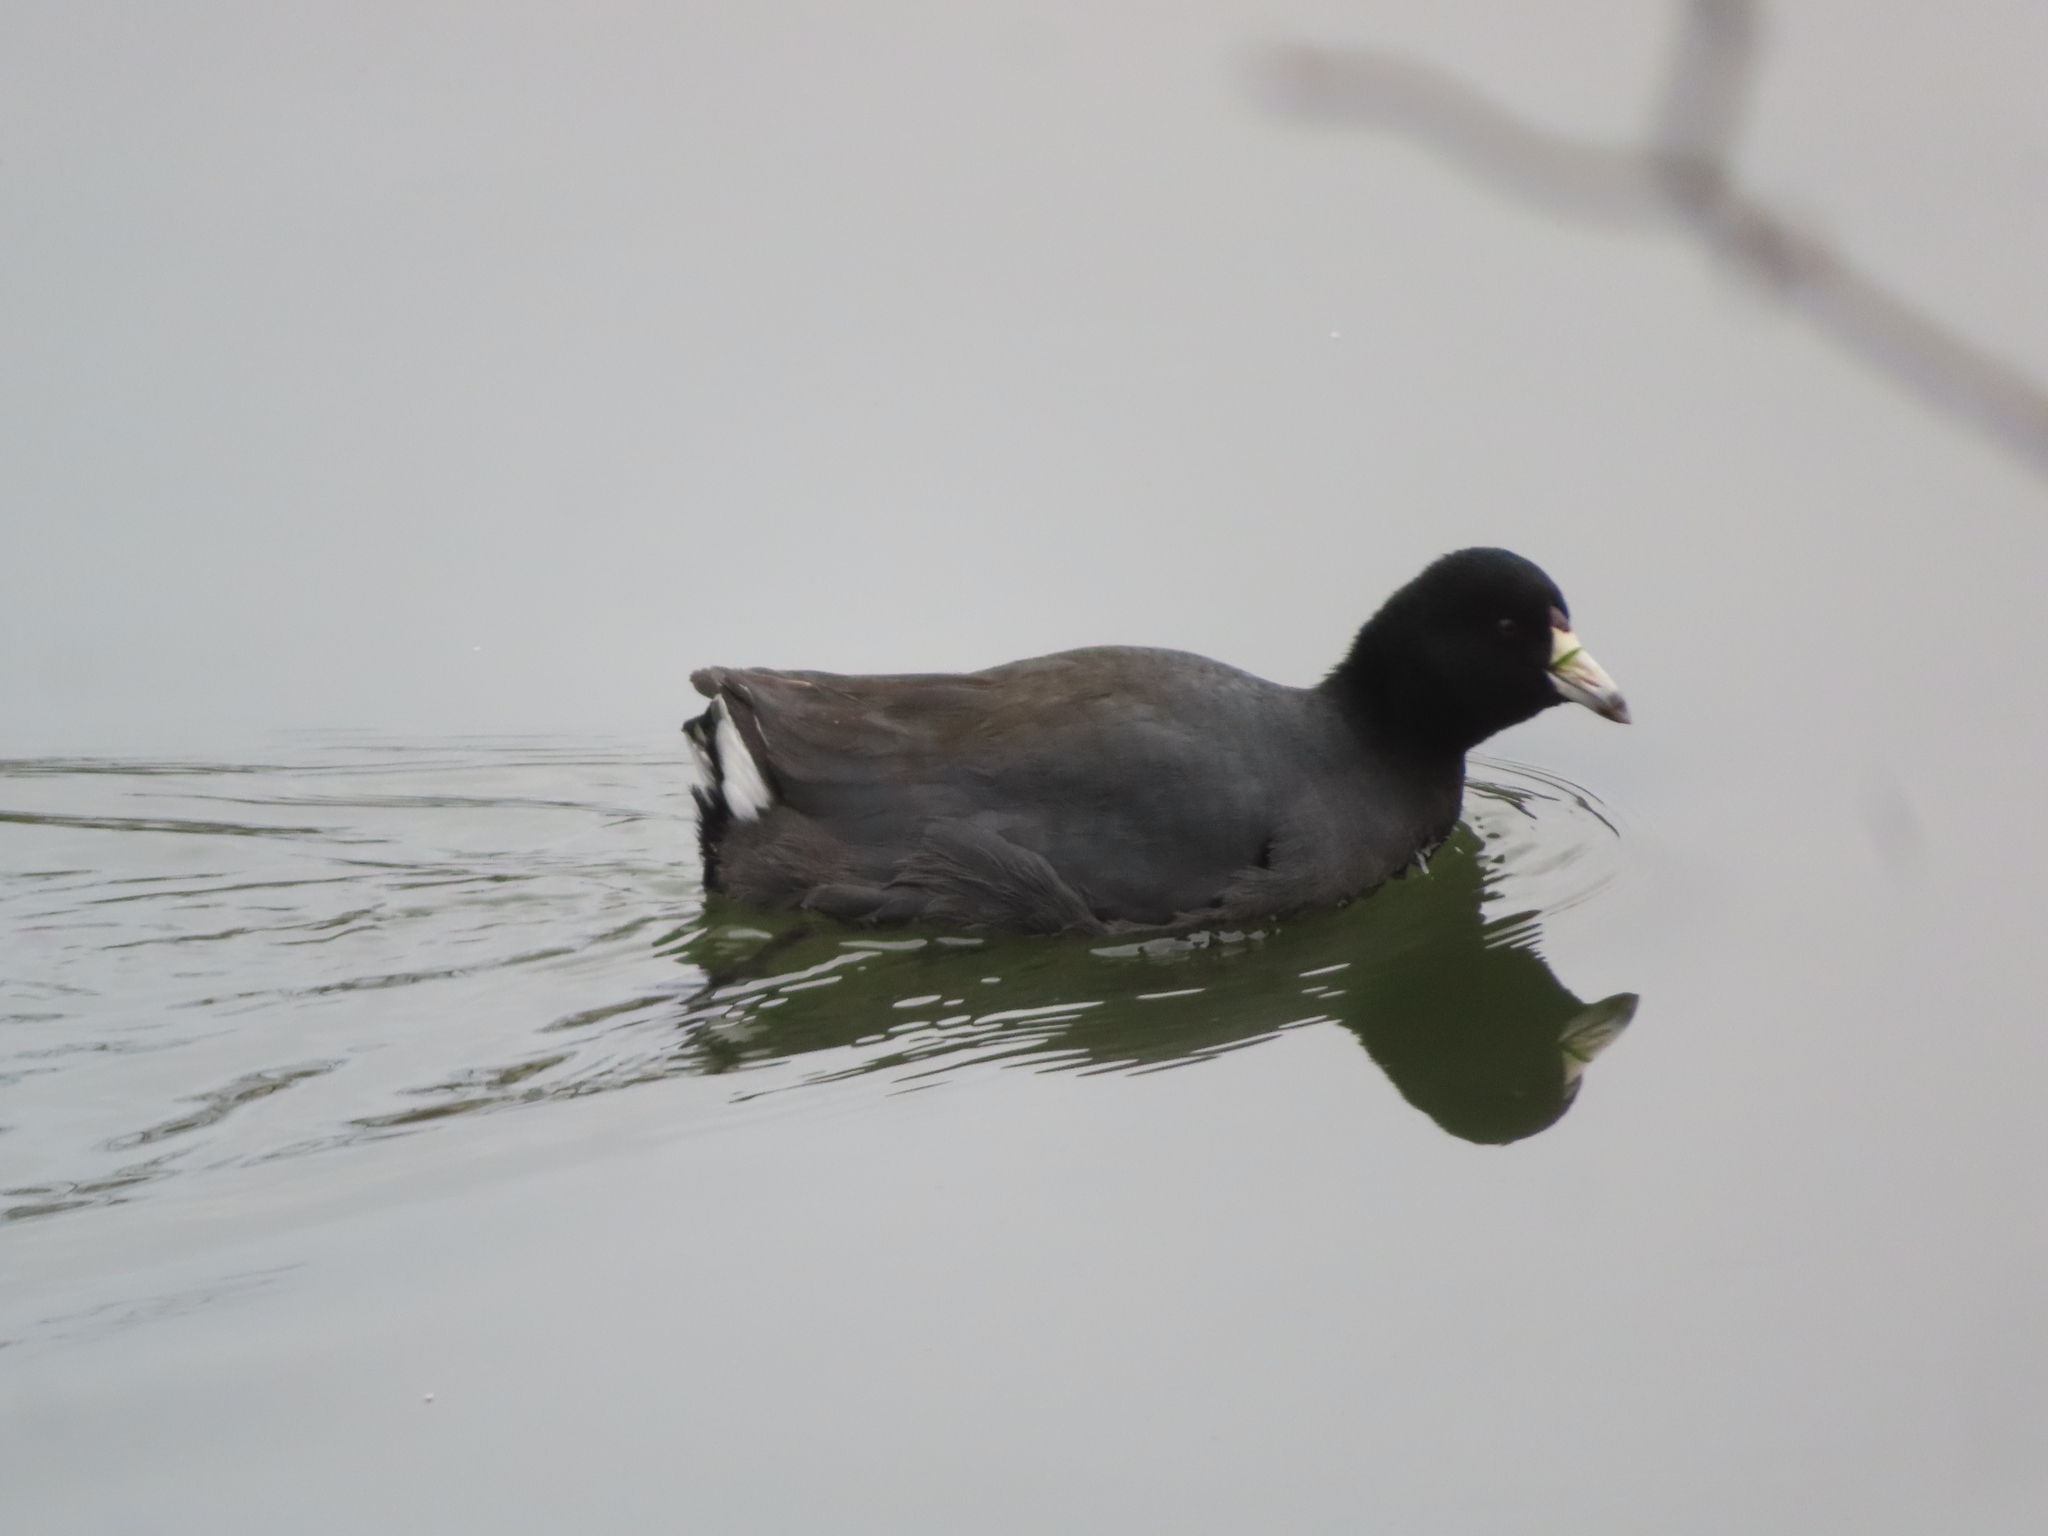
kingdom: Animalia
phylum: Chordata
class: Aves
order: Gruiformes
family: Rallidae
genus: Fulica
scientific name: Fulica americana
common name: American coot
